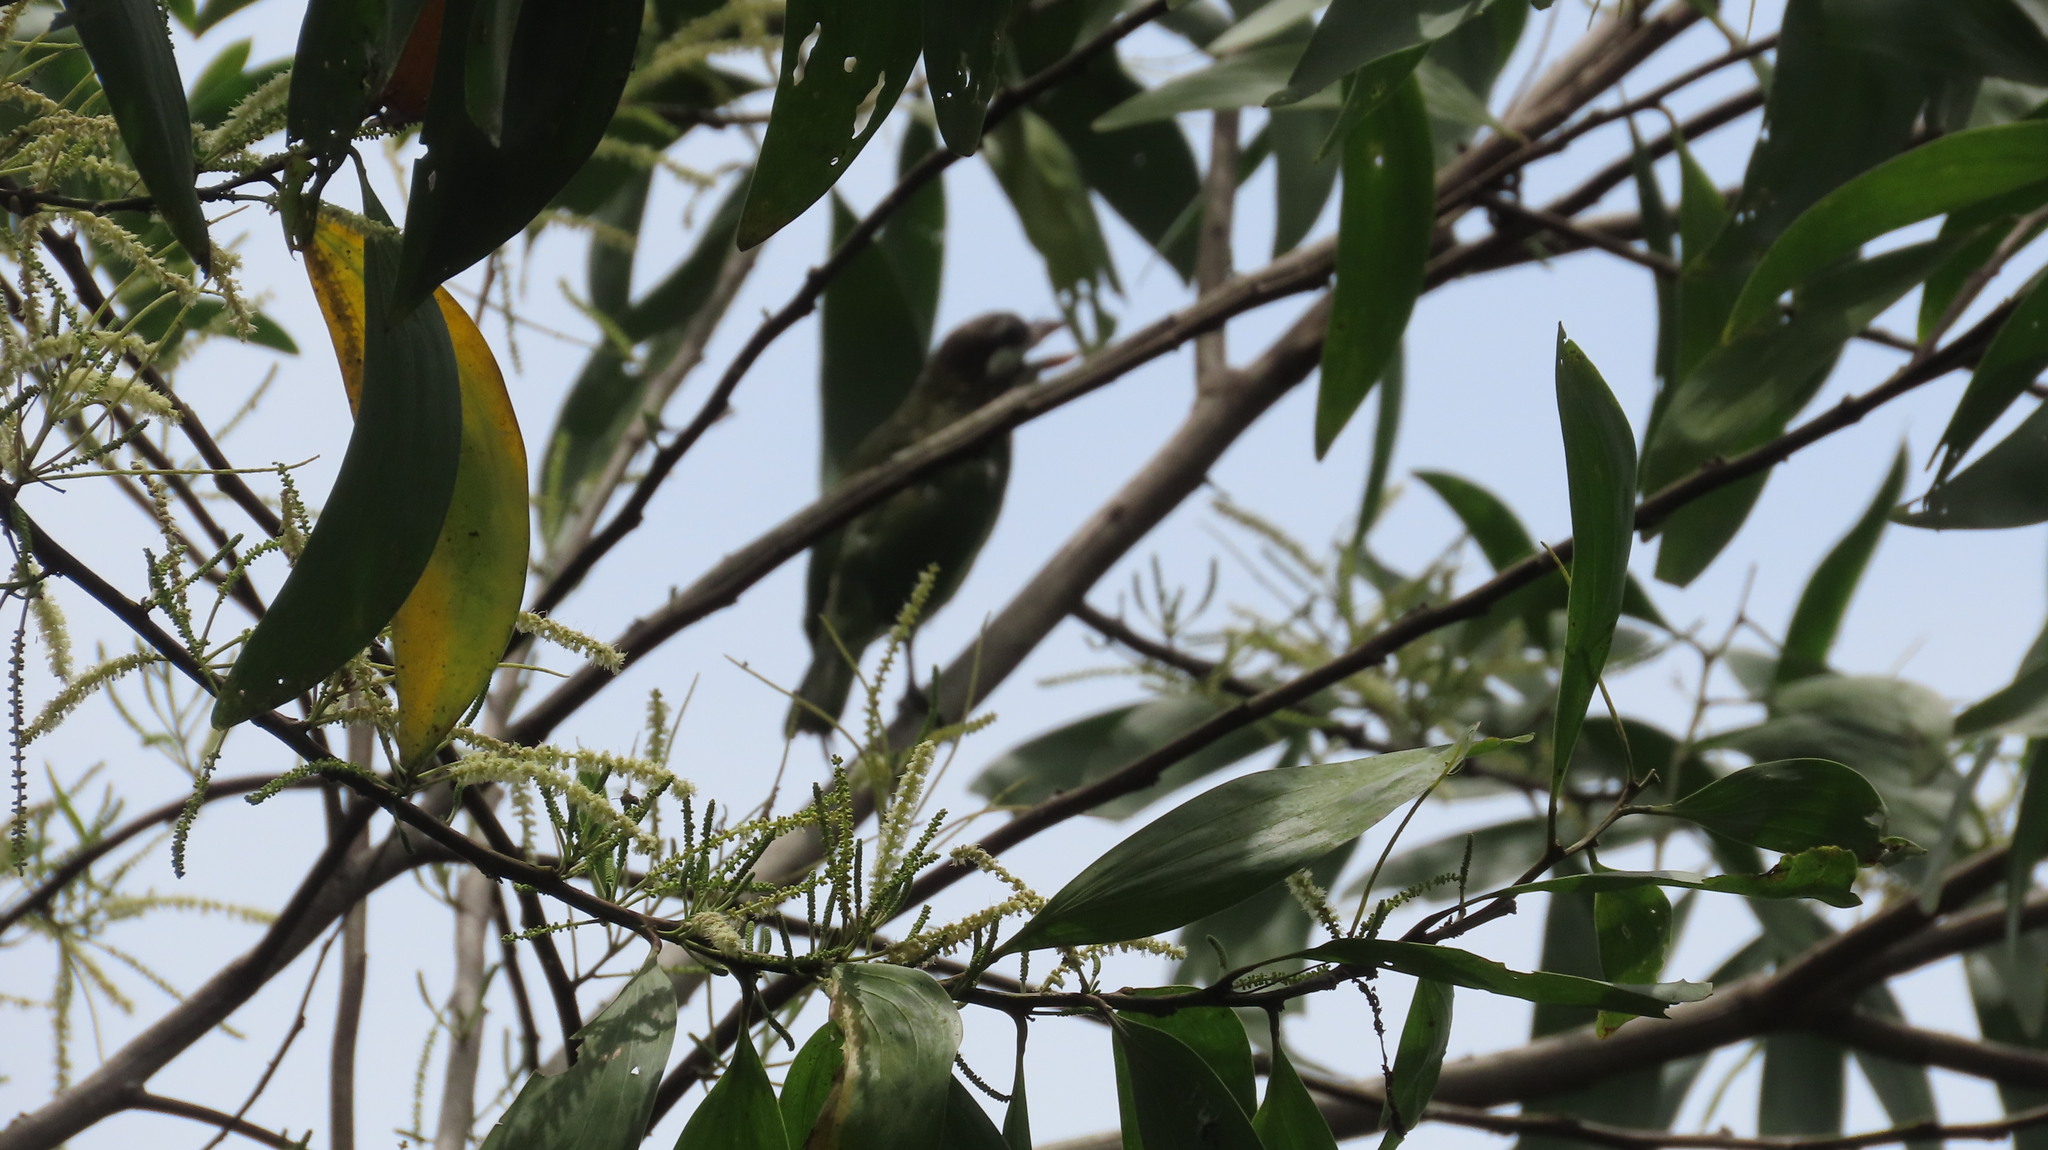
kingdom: Animalia
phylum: Chordata
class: Aves
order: Piciformes
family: Megalaimidae
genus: Psilopogon
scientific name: Psilopogon viridis
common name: White-cheeked barbet
